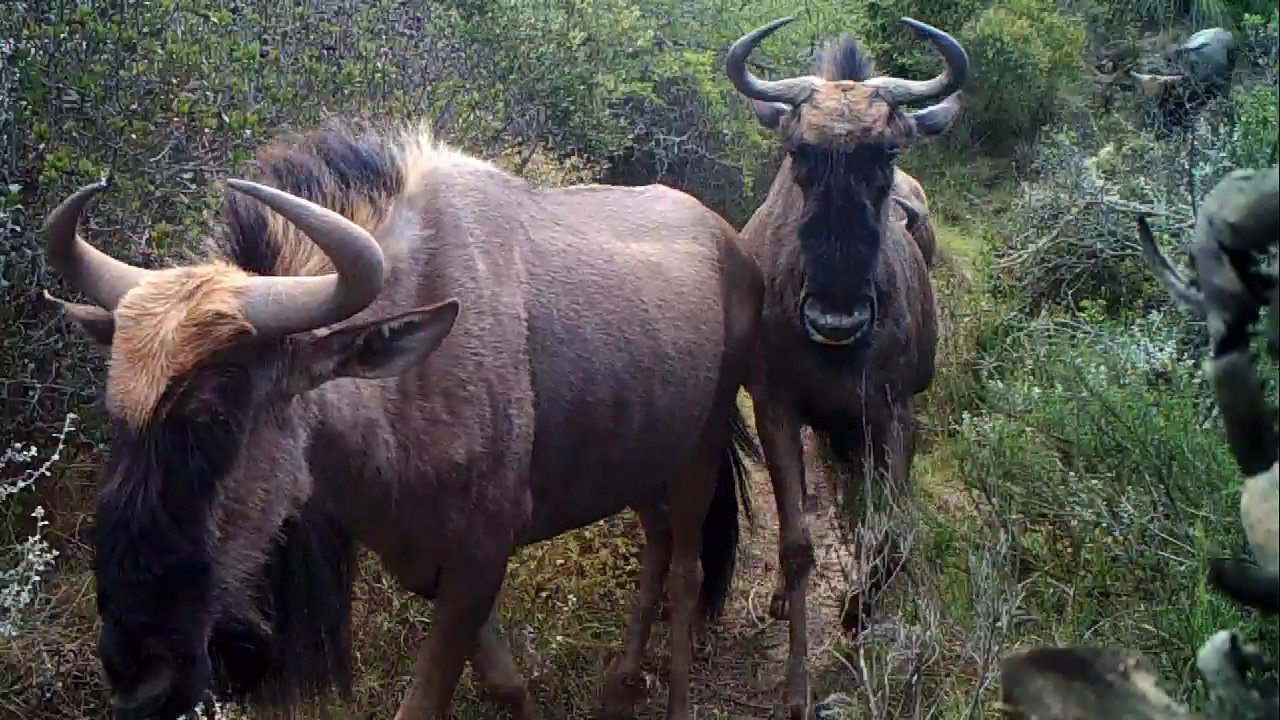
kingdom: Animalia
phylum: Chordata
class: Mammalia
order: Artiodactyla
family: Bovidae
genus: Connochaetes
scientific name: Connochaetes taurinus
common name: Blue wildebeest
